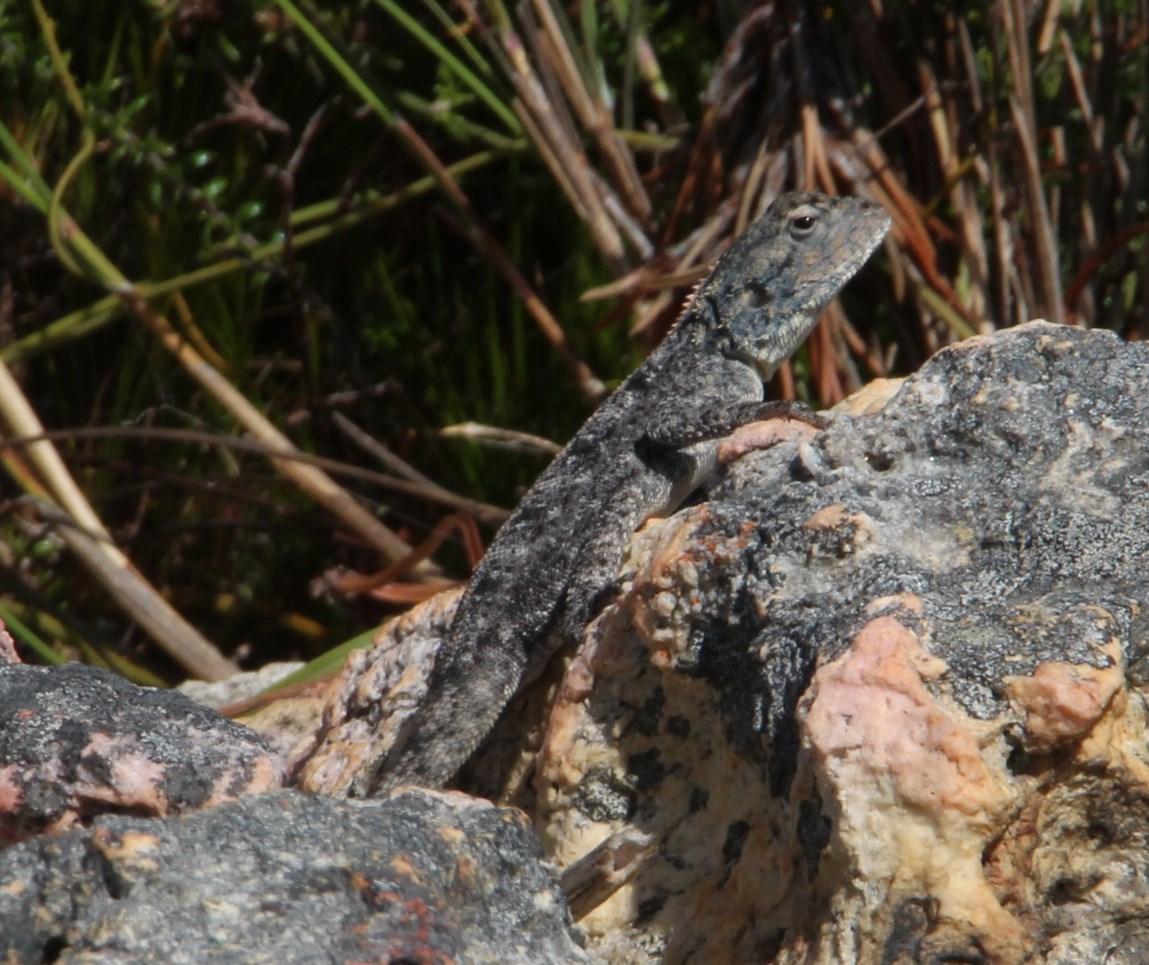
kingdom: Animalia
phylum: Chordata
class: Squamata
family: Agamidae
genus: Agama
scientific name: Agama atra
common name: Southern african rock agama
